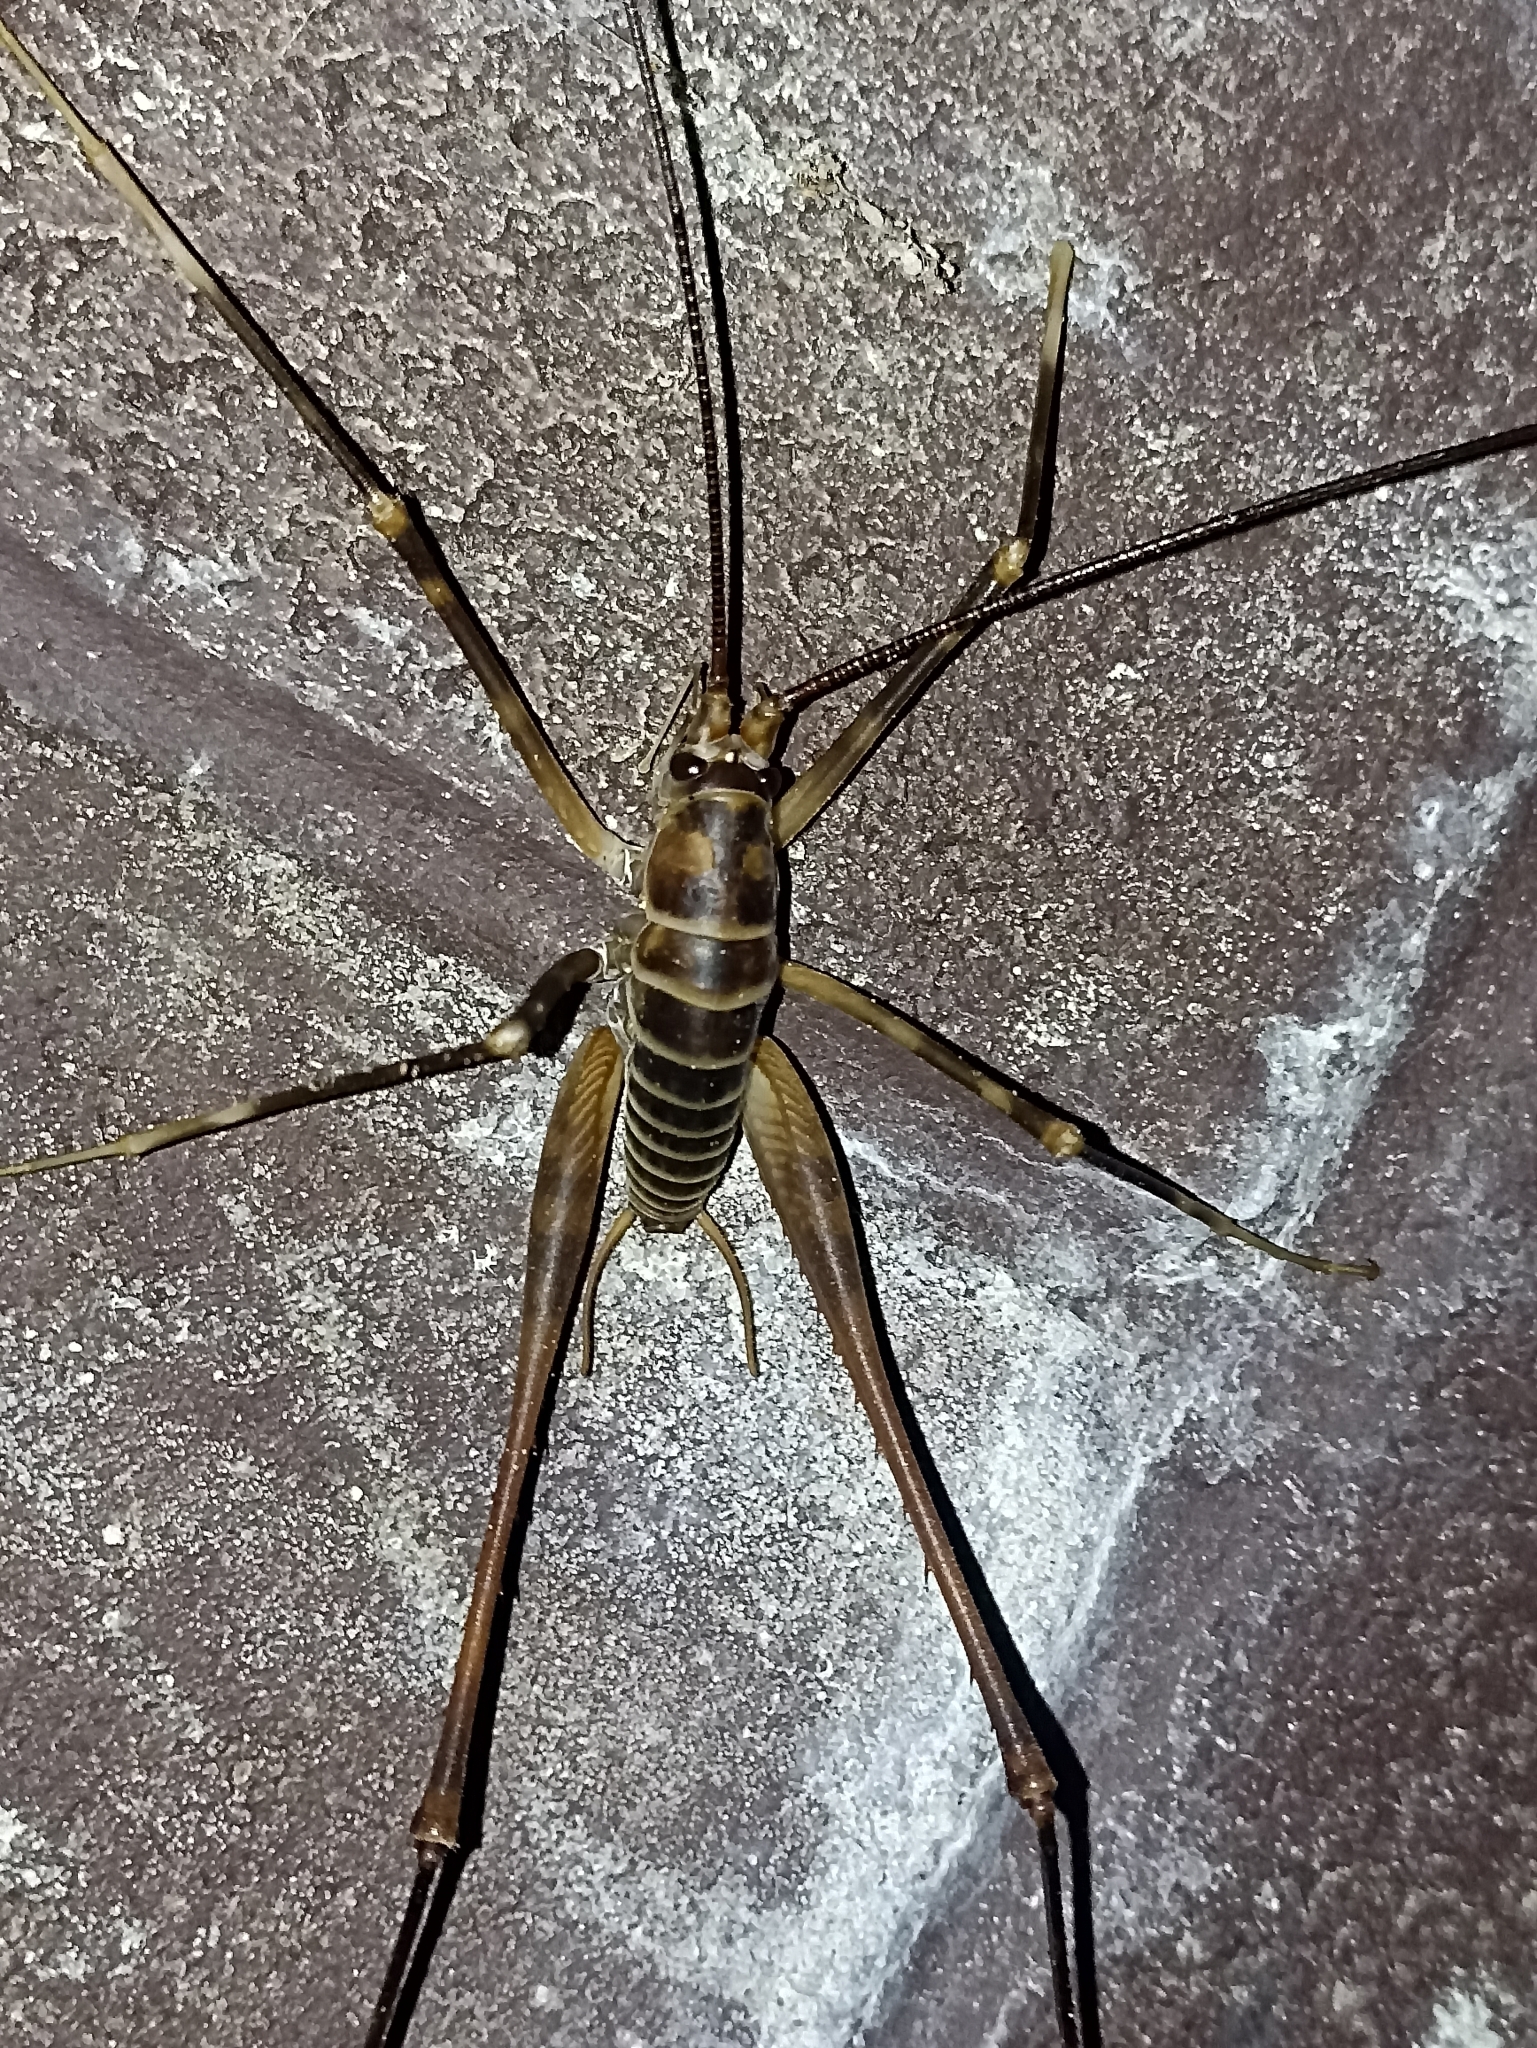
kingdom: Animalia
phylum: Arthropoda
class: Insecta
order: Orthoptera
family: Rhaphidophoridae
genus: Pachyrhamma
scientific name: Pachyrhamma acanthocera
